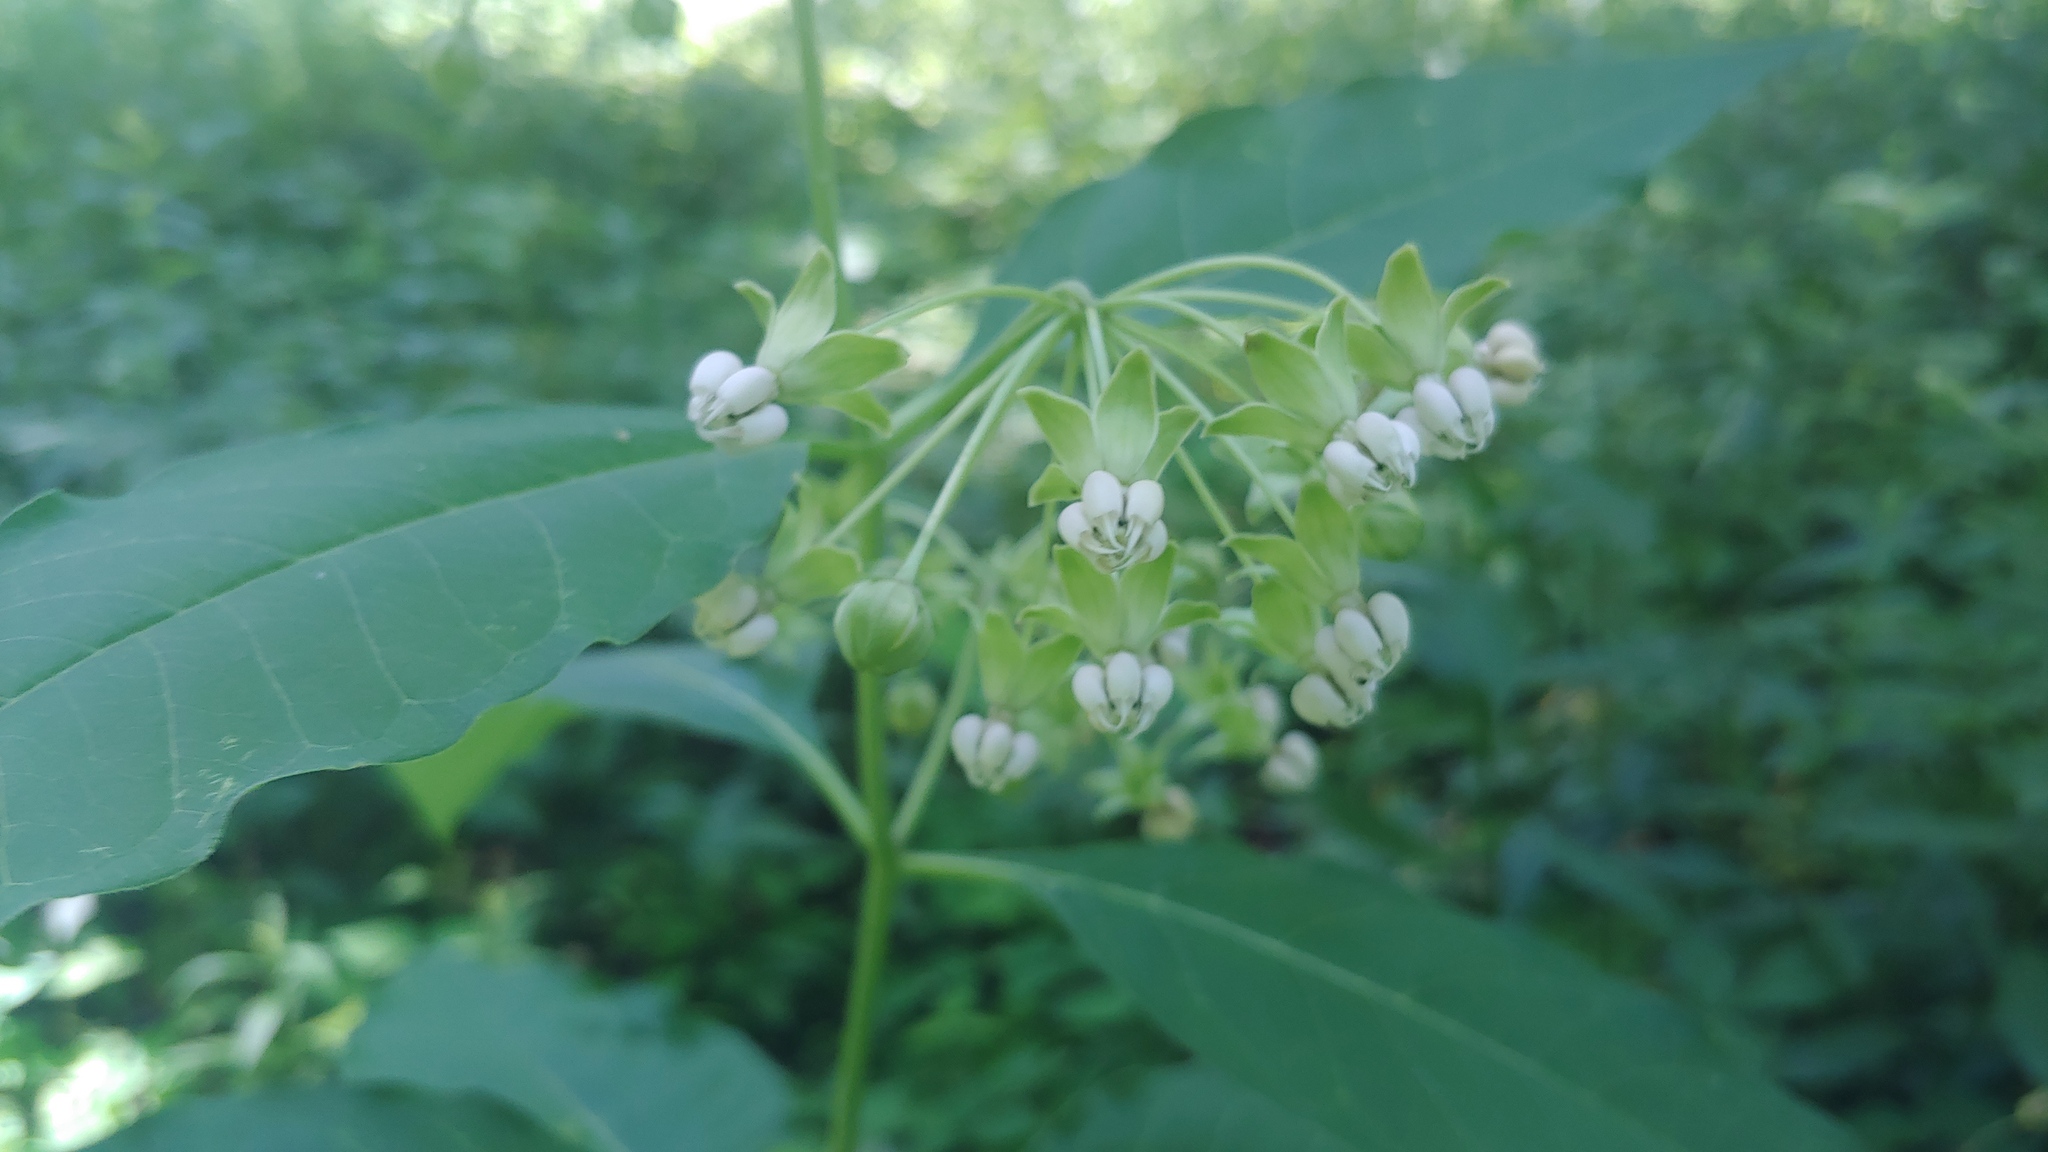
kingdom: Plantae
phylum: Tracheophyta
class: Magnoliopsida
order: Gentianales
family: Apocynaceae
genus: Asclepias
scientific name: Asclepias exaltata
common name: Poke milkweed
